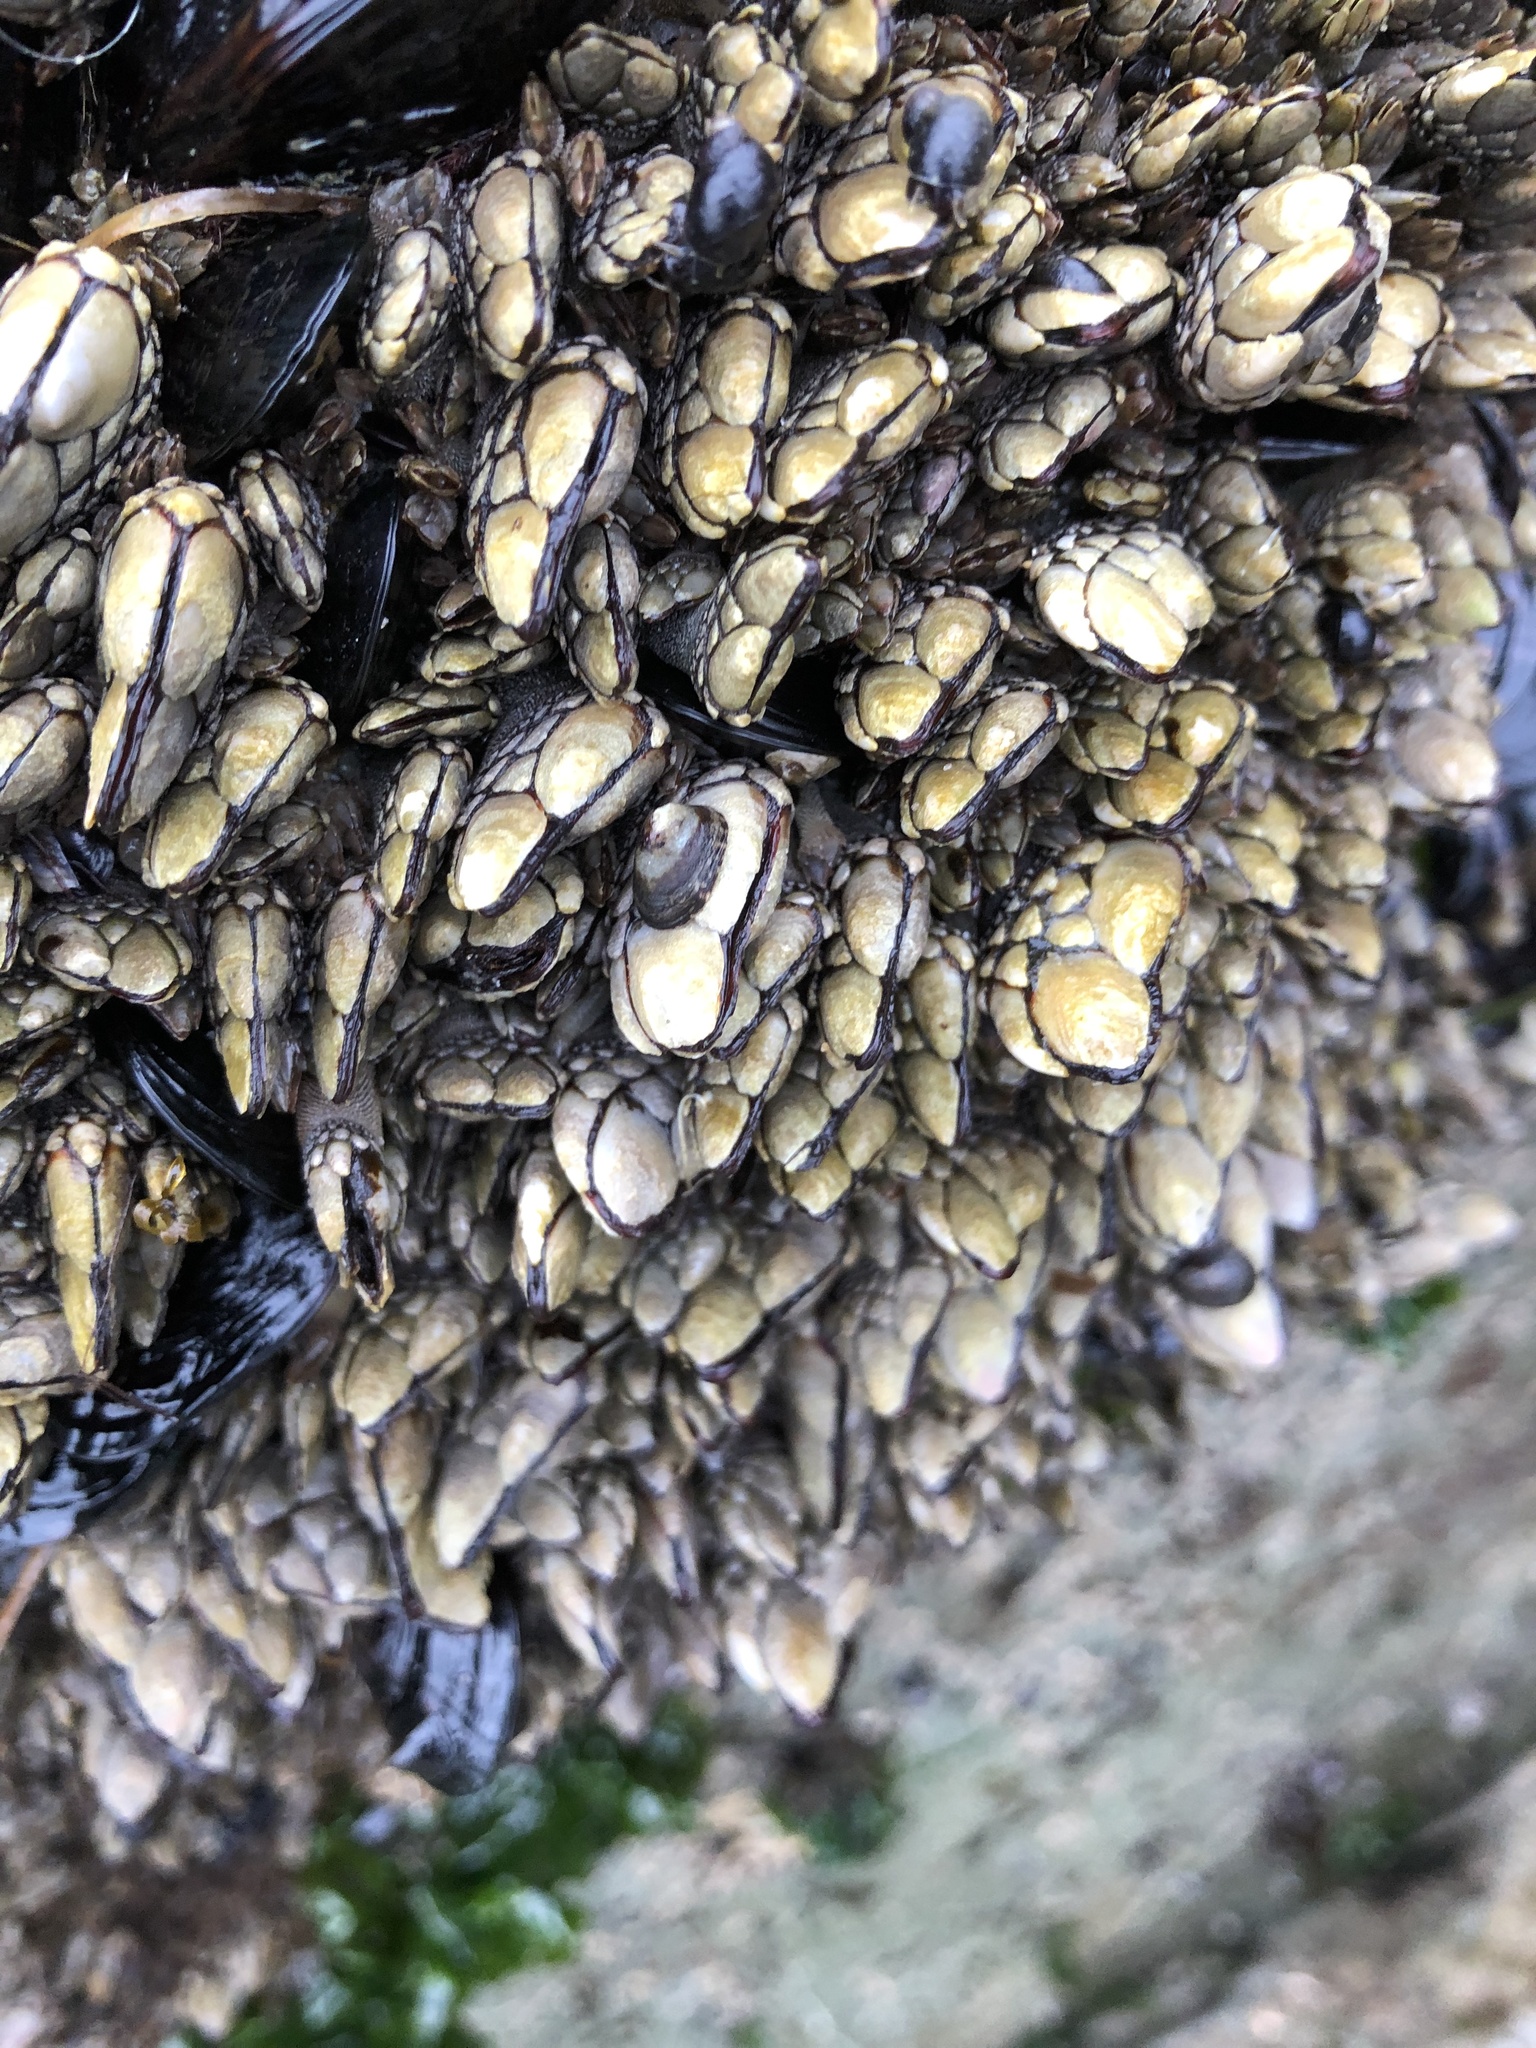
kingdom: Animalia
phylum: Arthropoda
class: Maxillopoda
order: Pedunculata
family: Pollicipedidae
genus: Pollicipes
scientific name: Pollicipes polymerus
